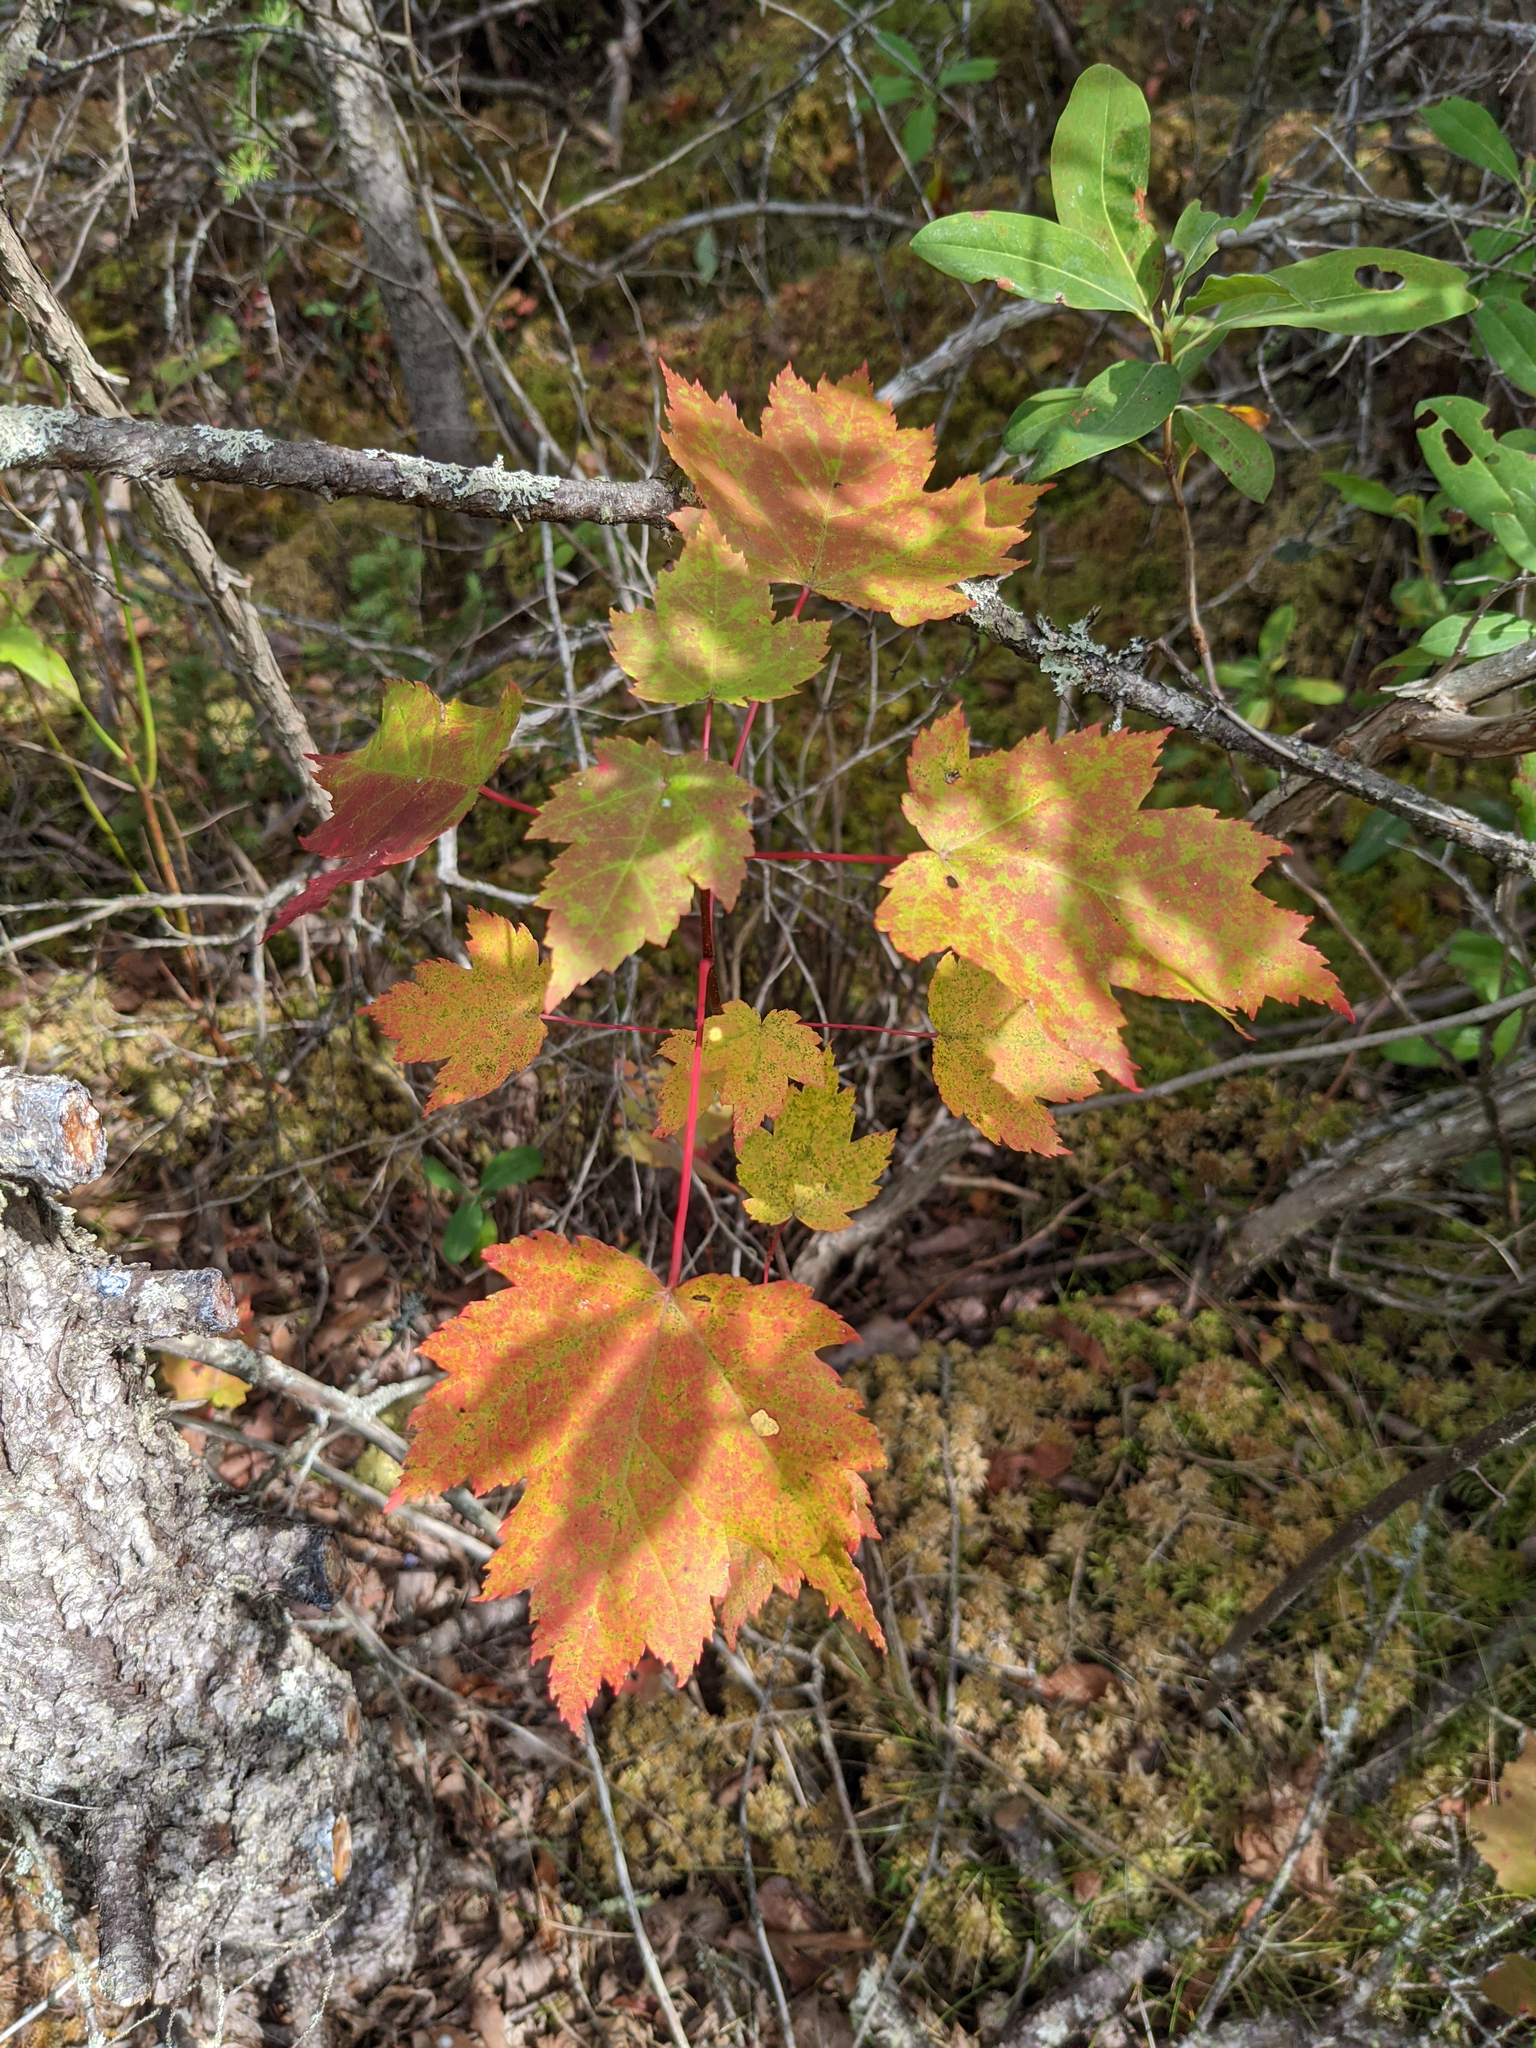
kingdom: Plantae
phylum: Tracheophyta
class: Magnoliopsida
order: Sapindales
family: Sapindaceae
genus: Acer
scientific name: Acer rubrum
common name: Red maple
